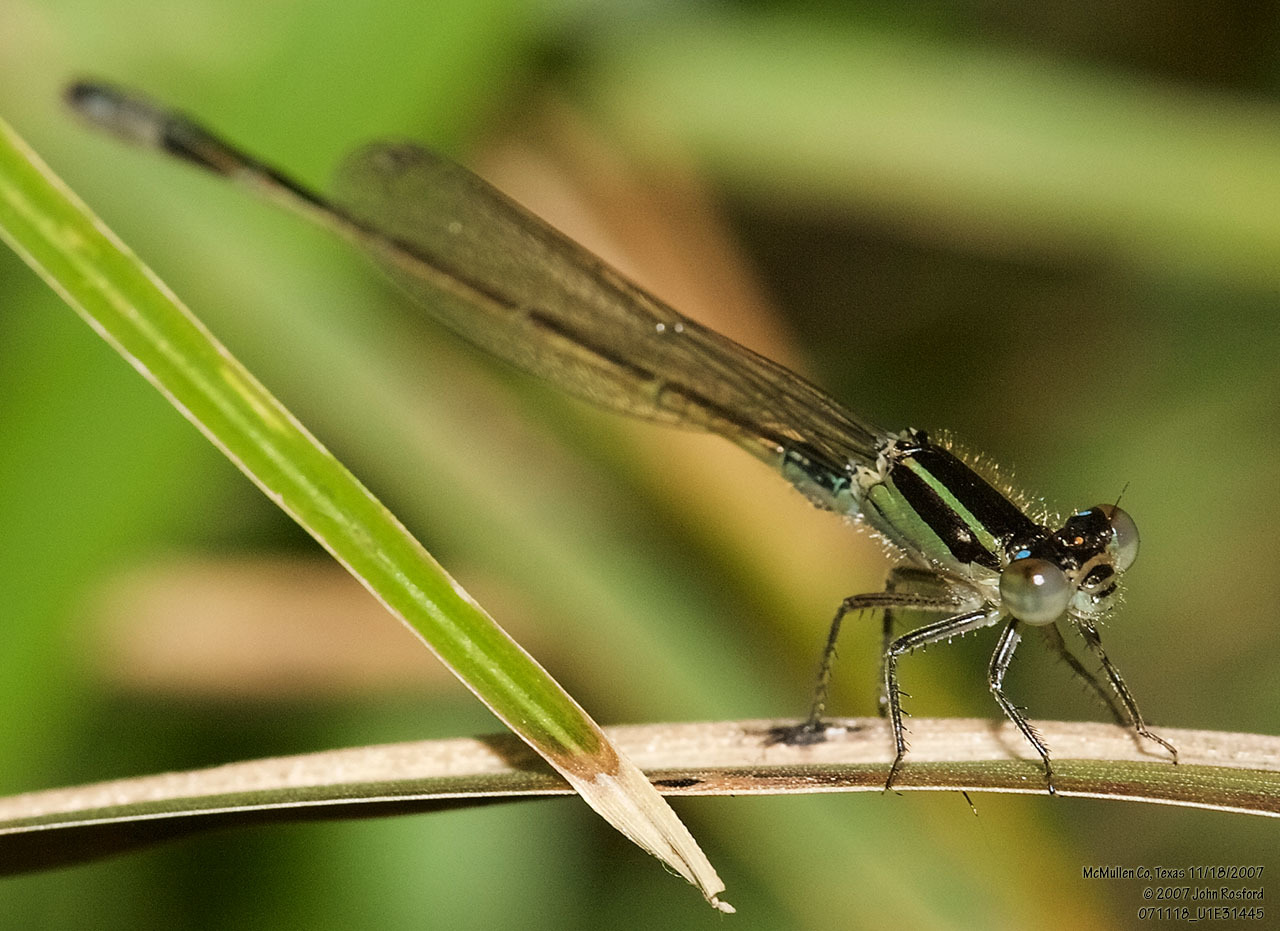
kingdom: Animalia
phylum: Arthropoda
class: Insecta
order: Odonata
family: Coenagrionidae
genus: Ischnura
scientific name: Ischnura ramburii
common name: Rambur's forktail
